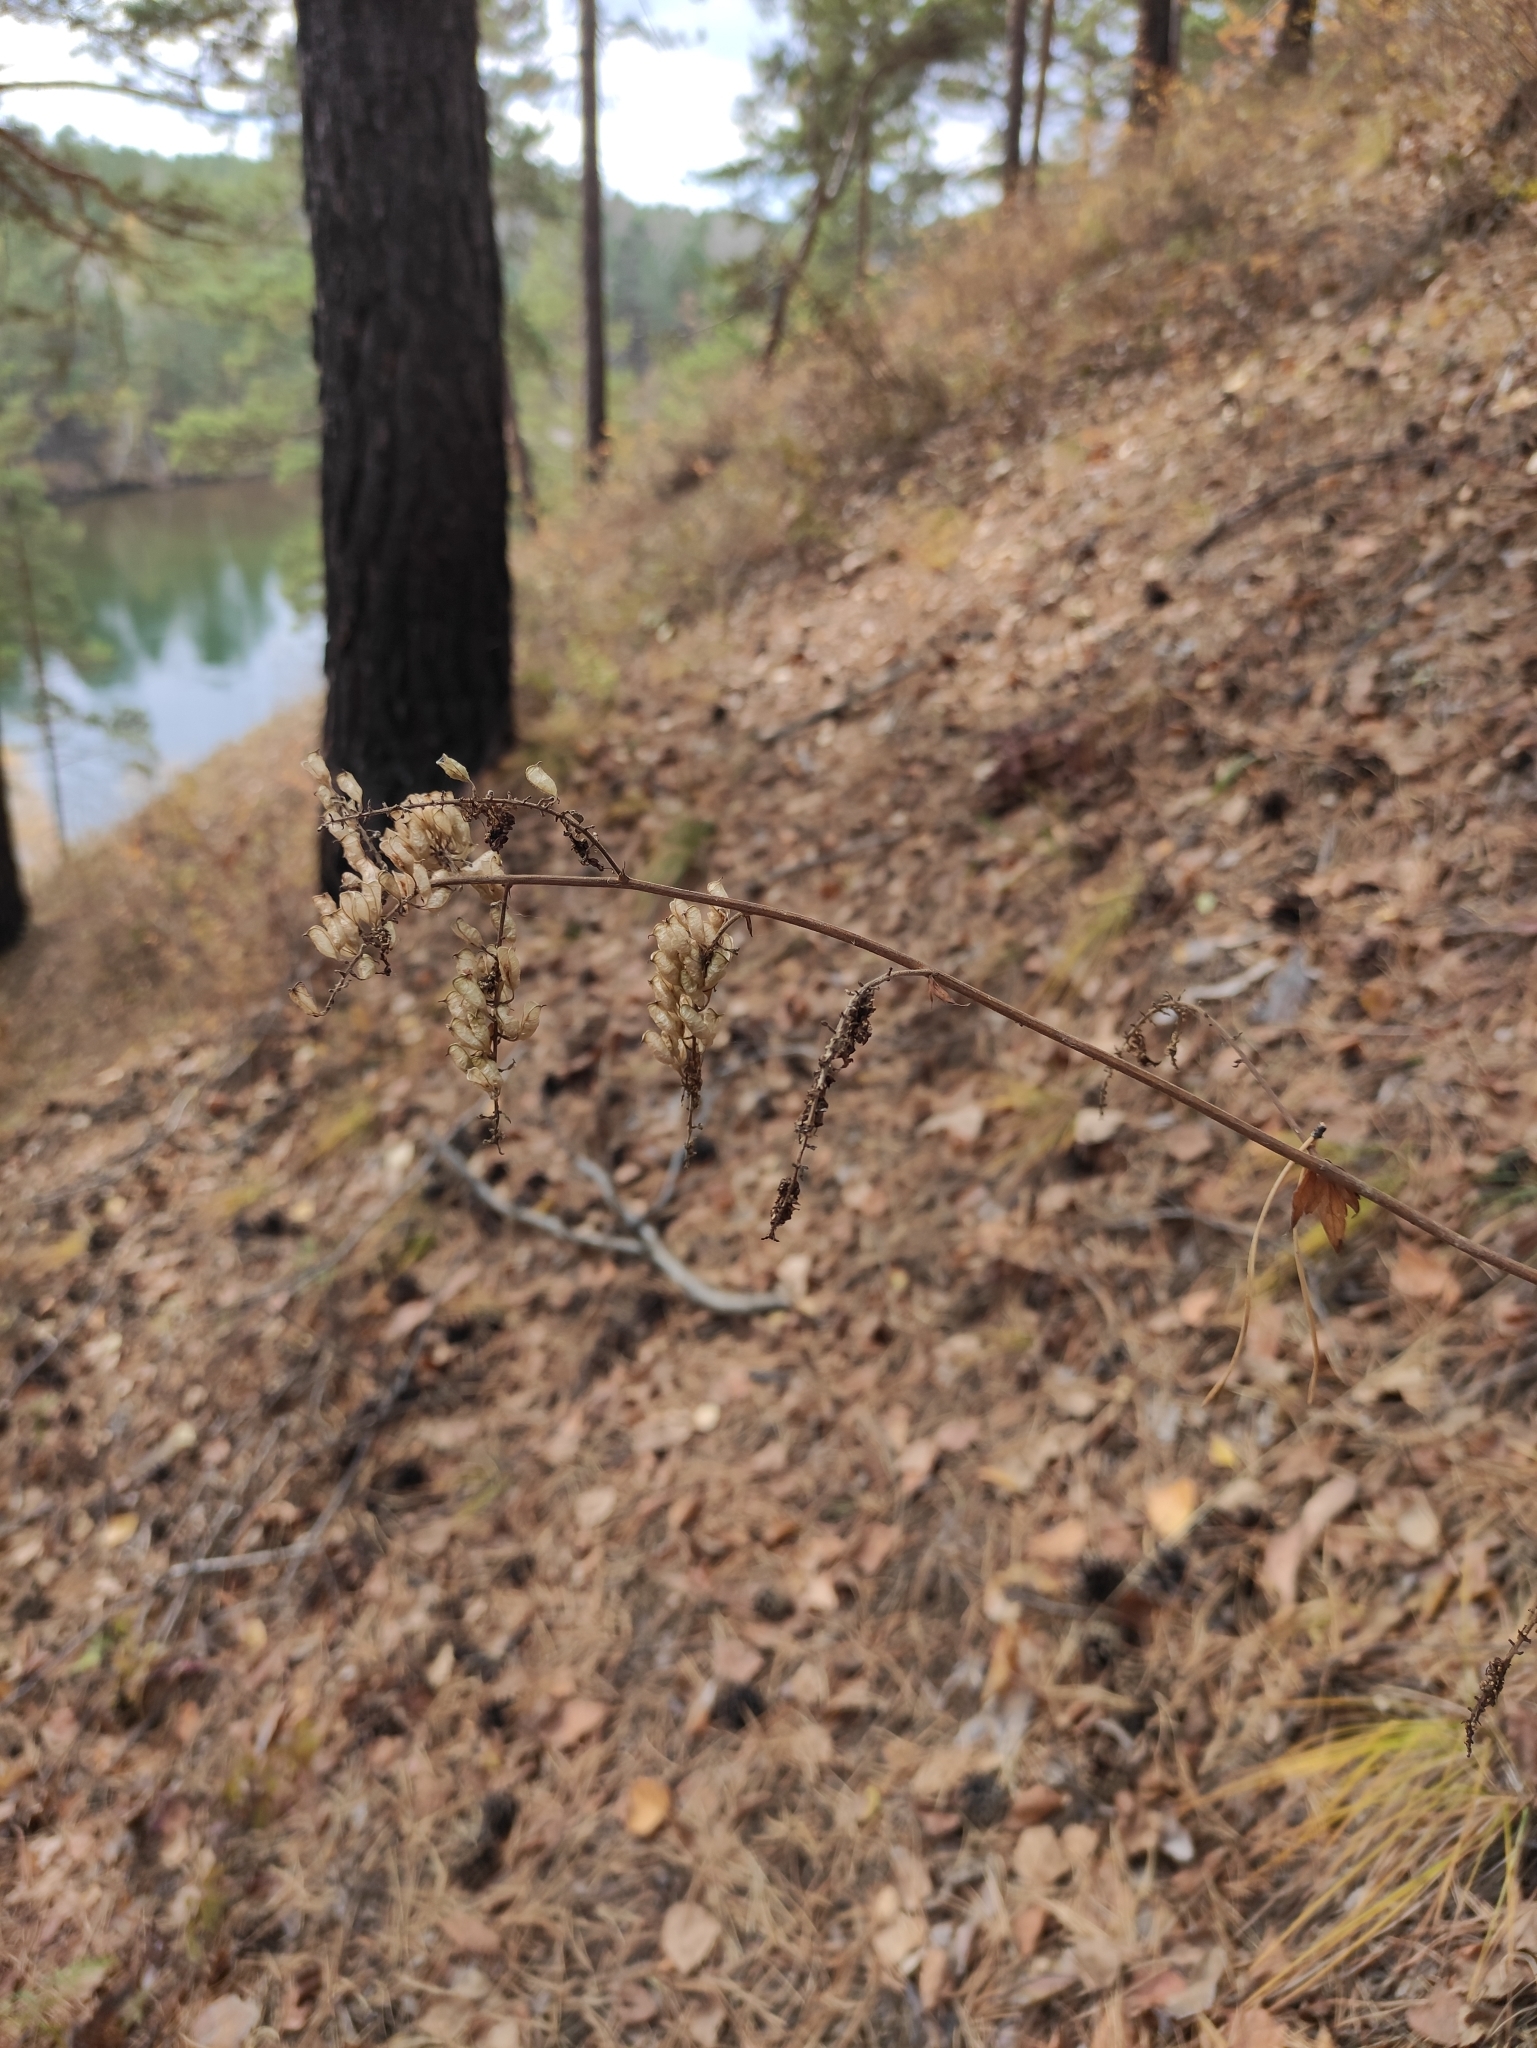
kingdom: Plantae
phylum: Tracheophyta
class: Magnoliopsida
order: Ranunculales
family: Ranunculaceae
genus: Actaea
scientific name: Actaea cimicifuga
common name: Chinese cimicifuga
